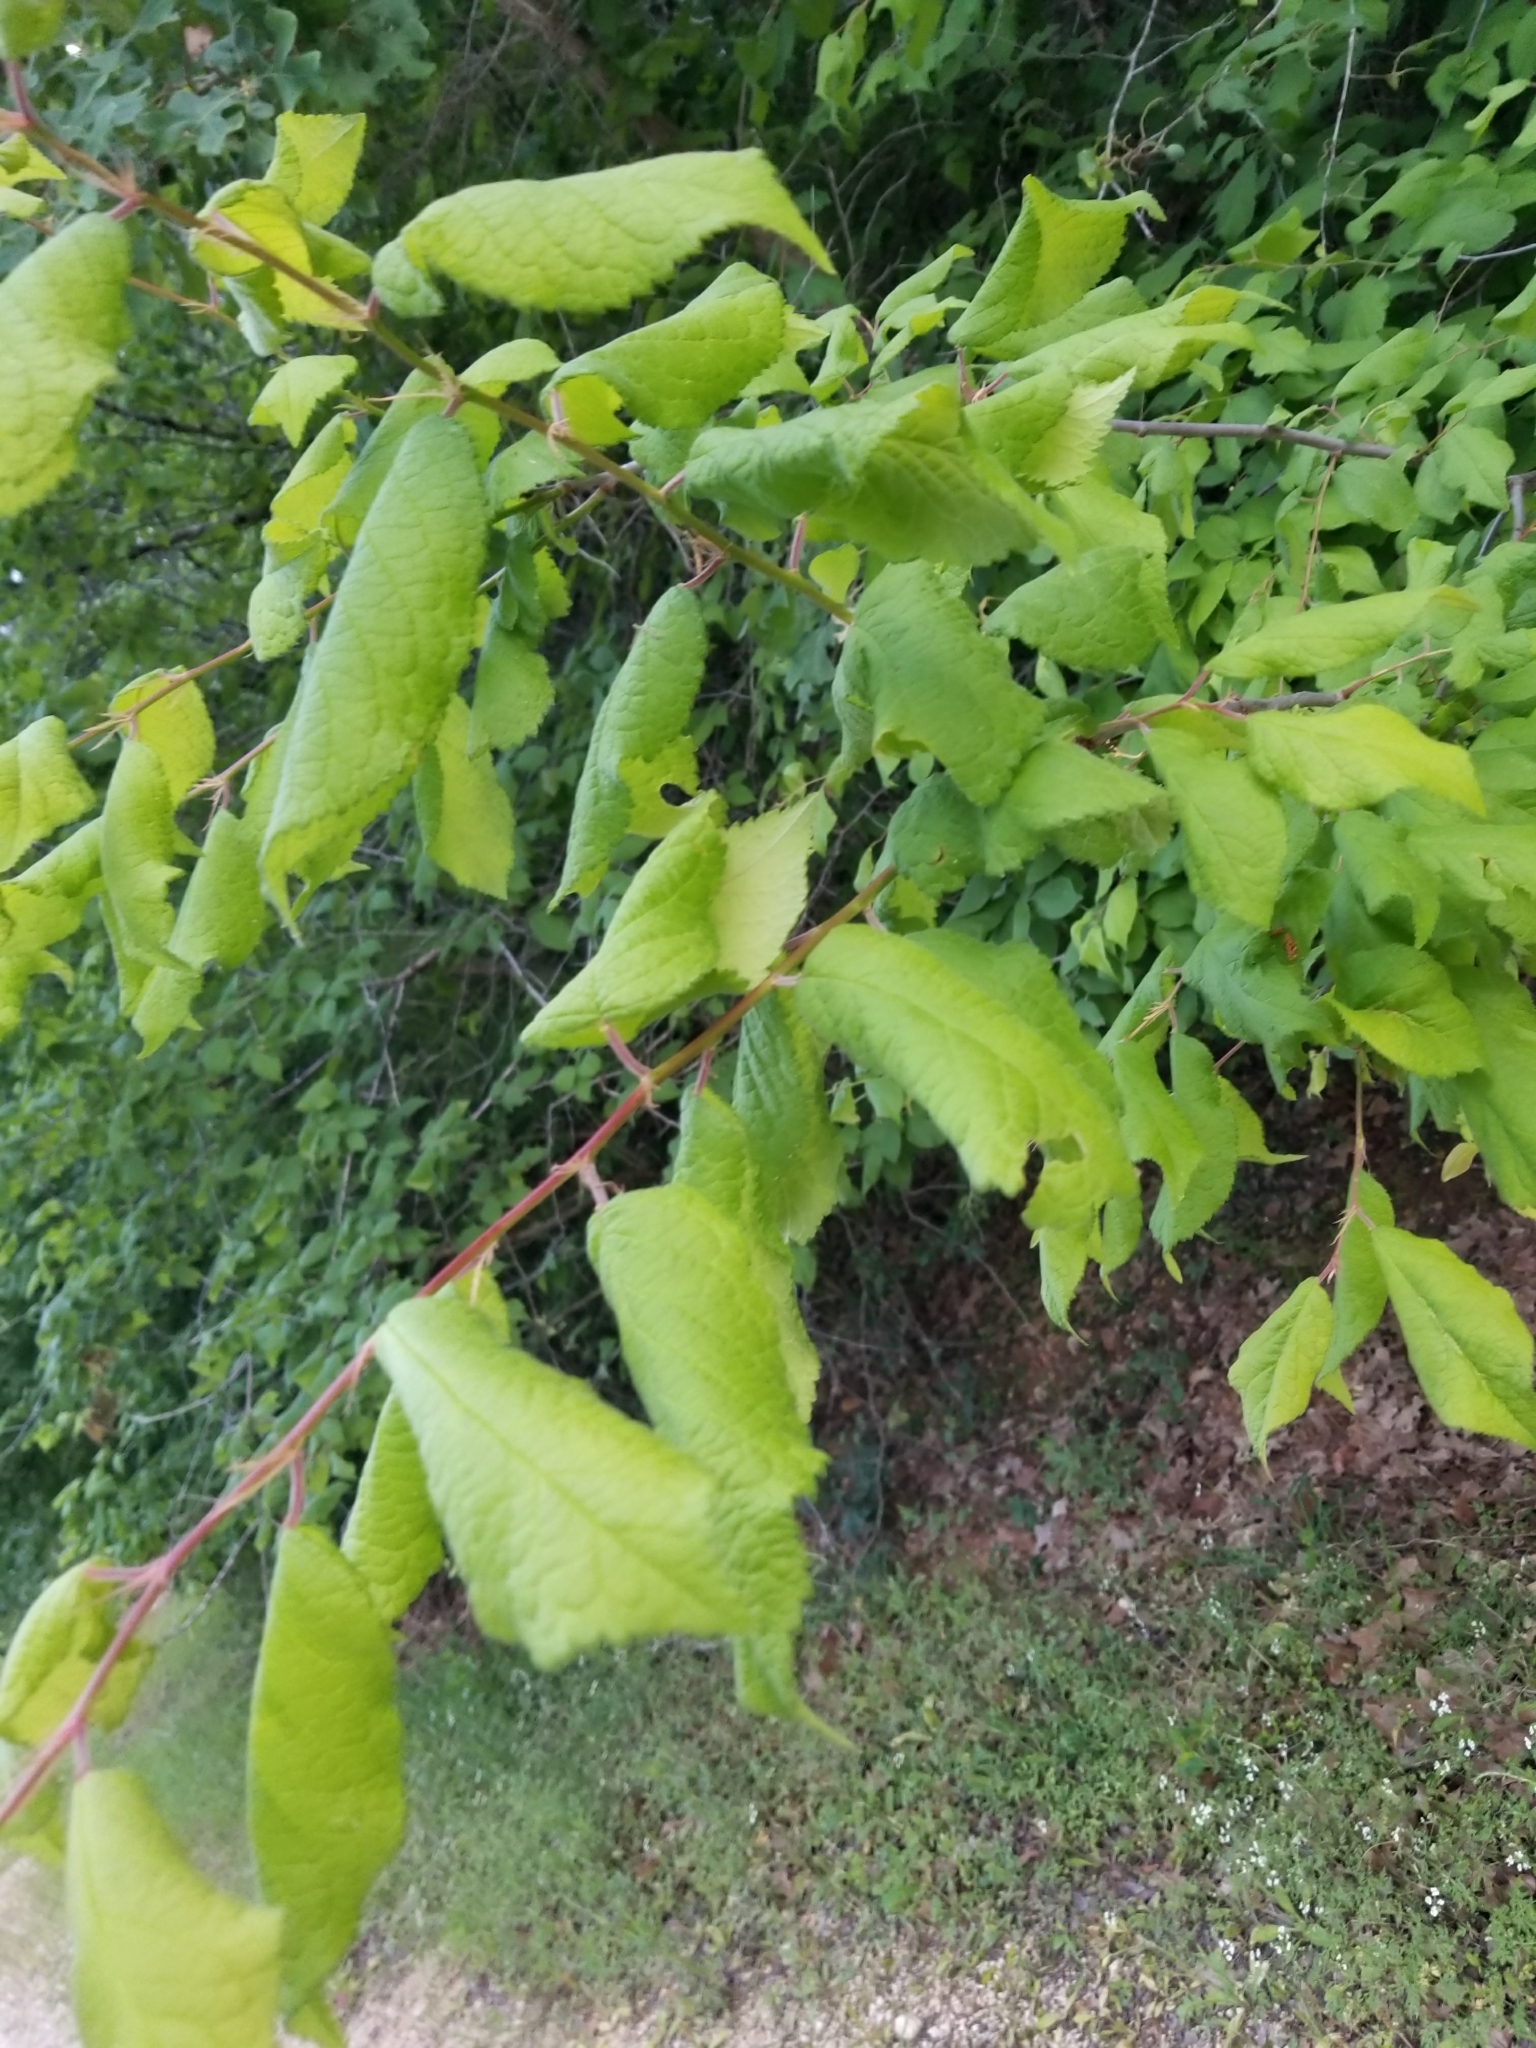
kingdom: Plantae
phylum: Tracheophyta
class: Magnoliopsida
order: Rosales
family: Rosaceae
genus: Prunus
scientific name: Prunus mexicana
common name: Mexican plum
